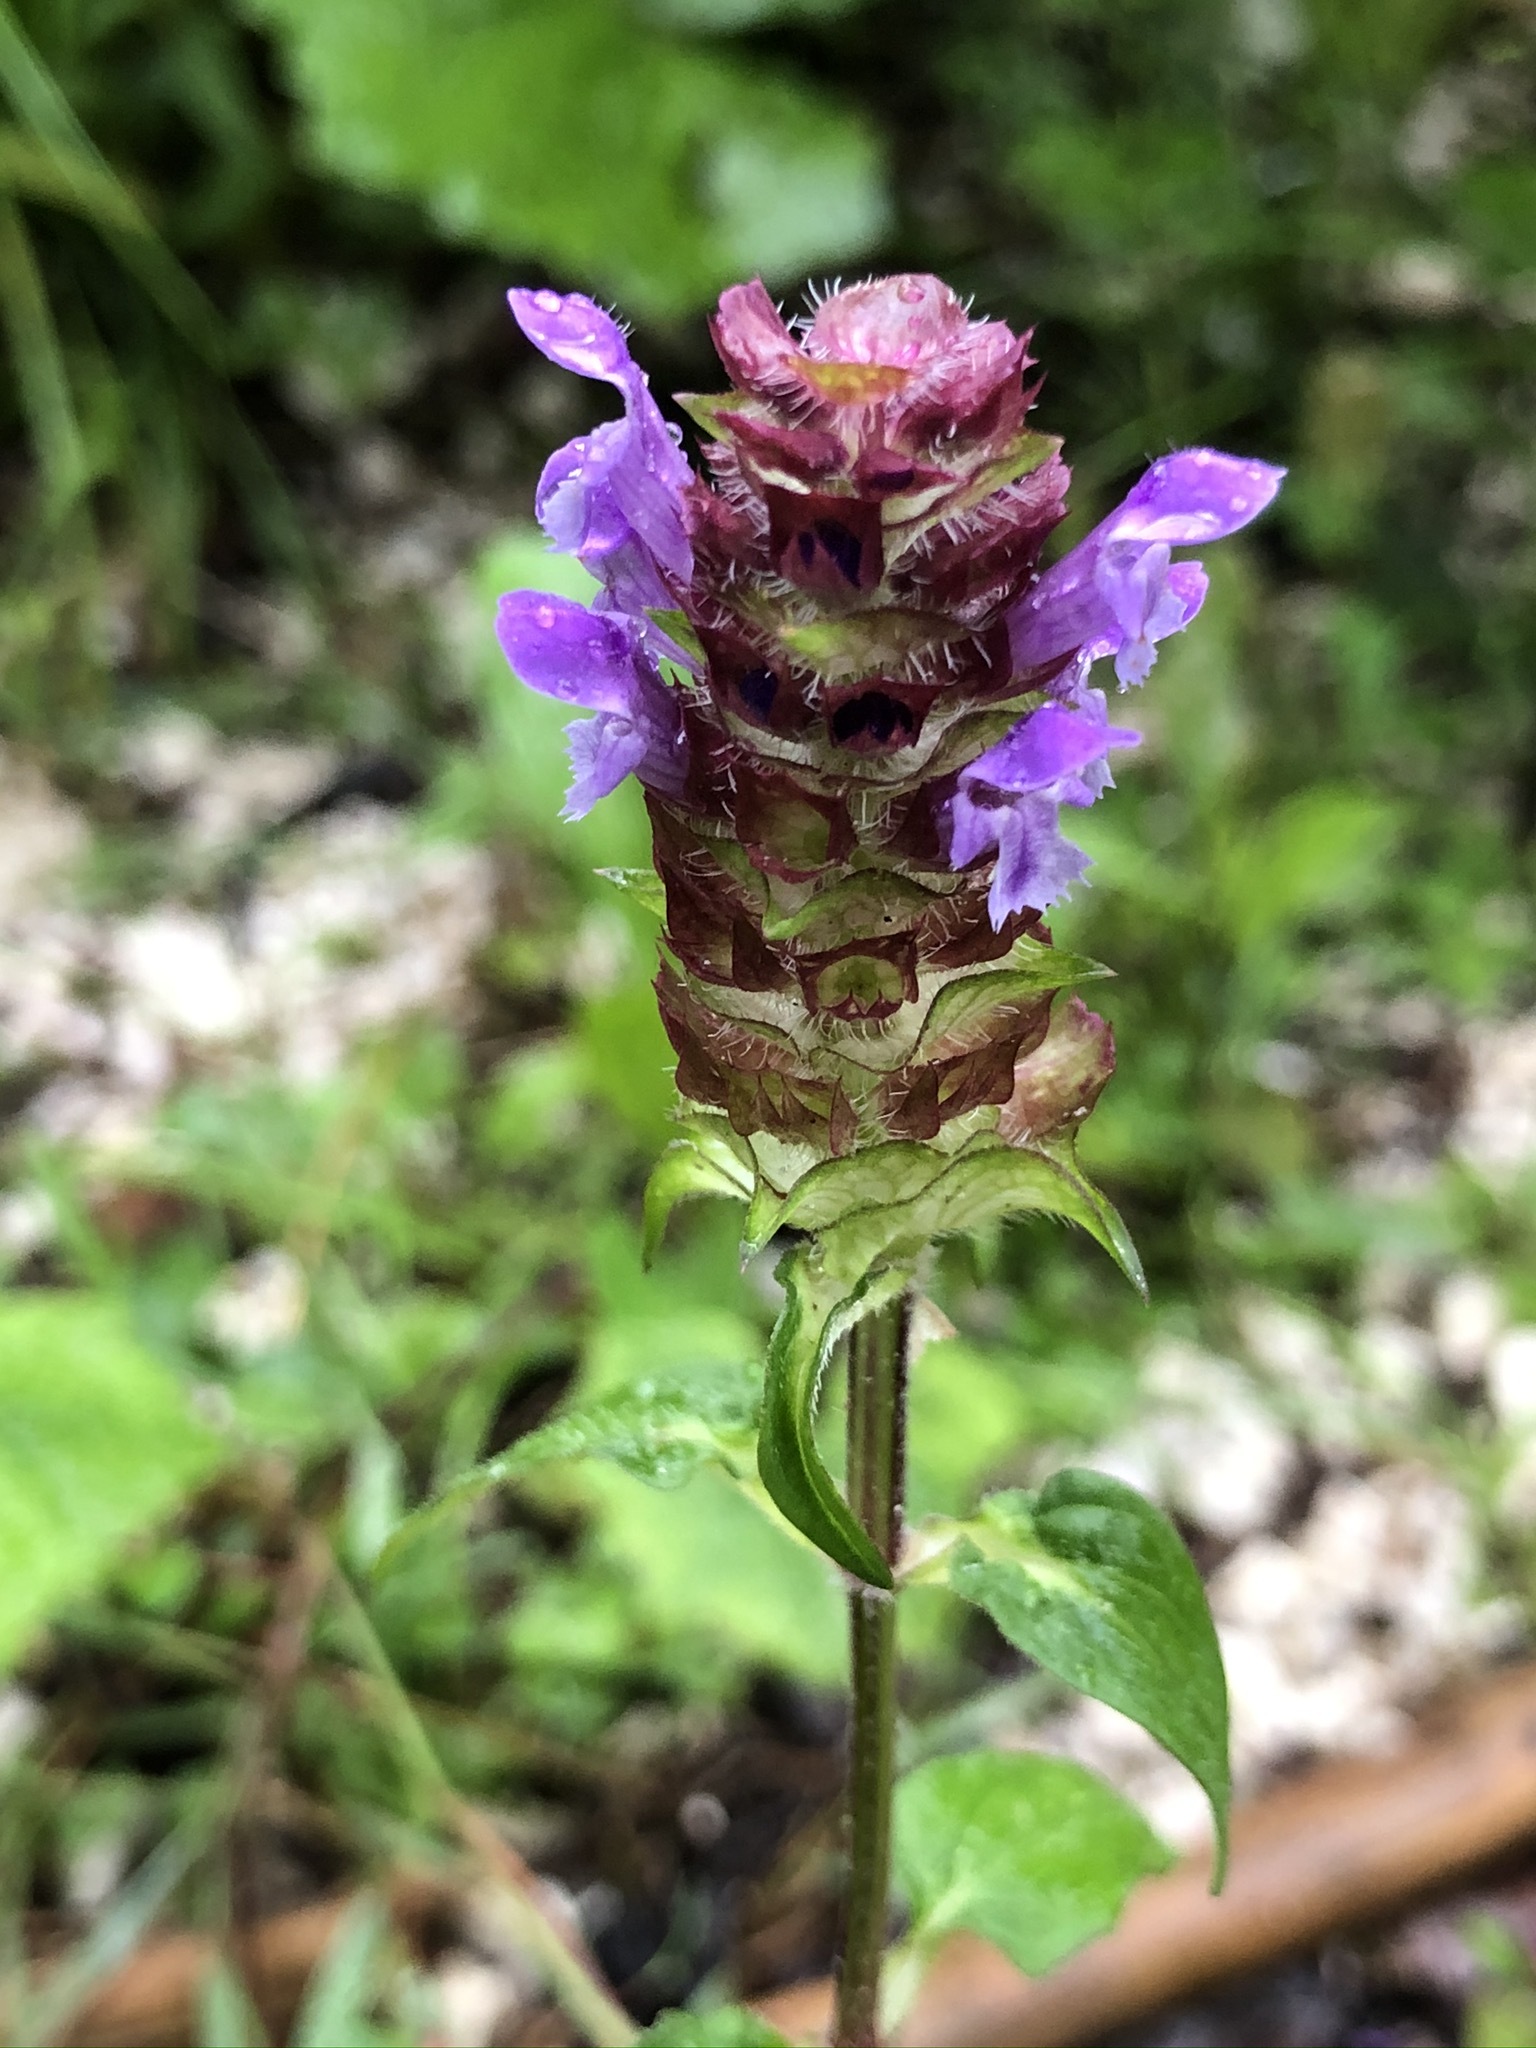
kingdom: Plantae
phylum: Tracheophyta
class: Magnoliopsida
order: Lamiales
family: Lamiaceae
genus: Prunella
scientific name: Prunella vulgaris
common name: Heal-all
